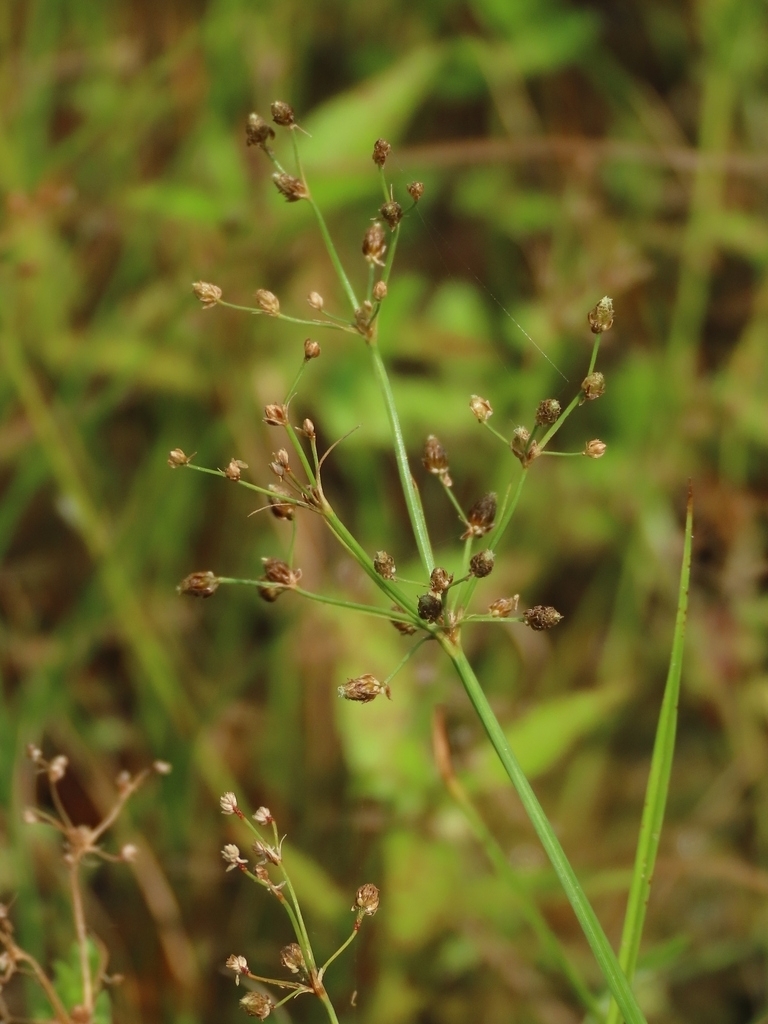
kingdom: Plantae
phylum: Tracheophyta
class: Liliopsida
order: Poales
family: Cyperaceae
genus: Fimbristylis
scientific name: Fimbristylis littoralis
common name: Fimbry
